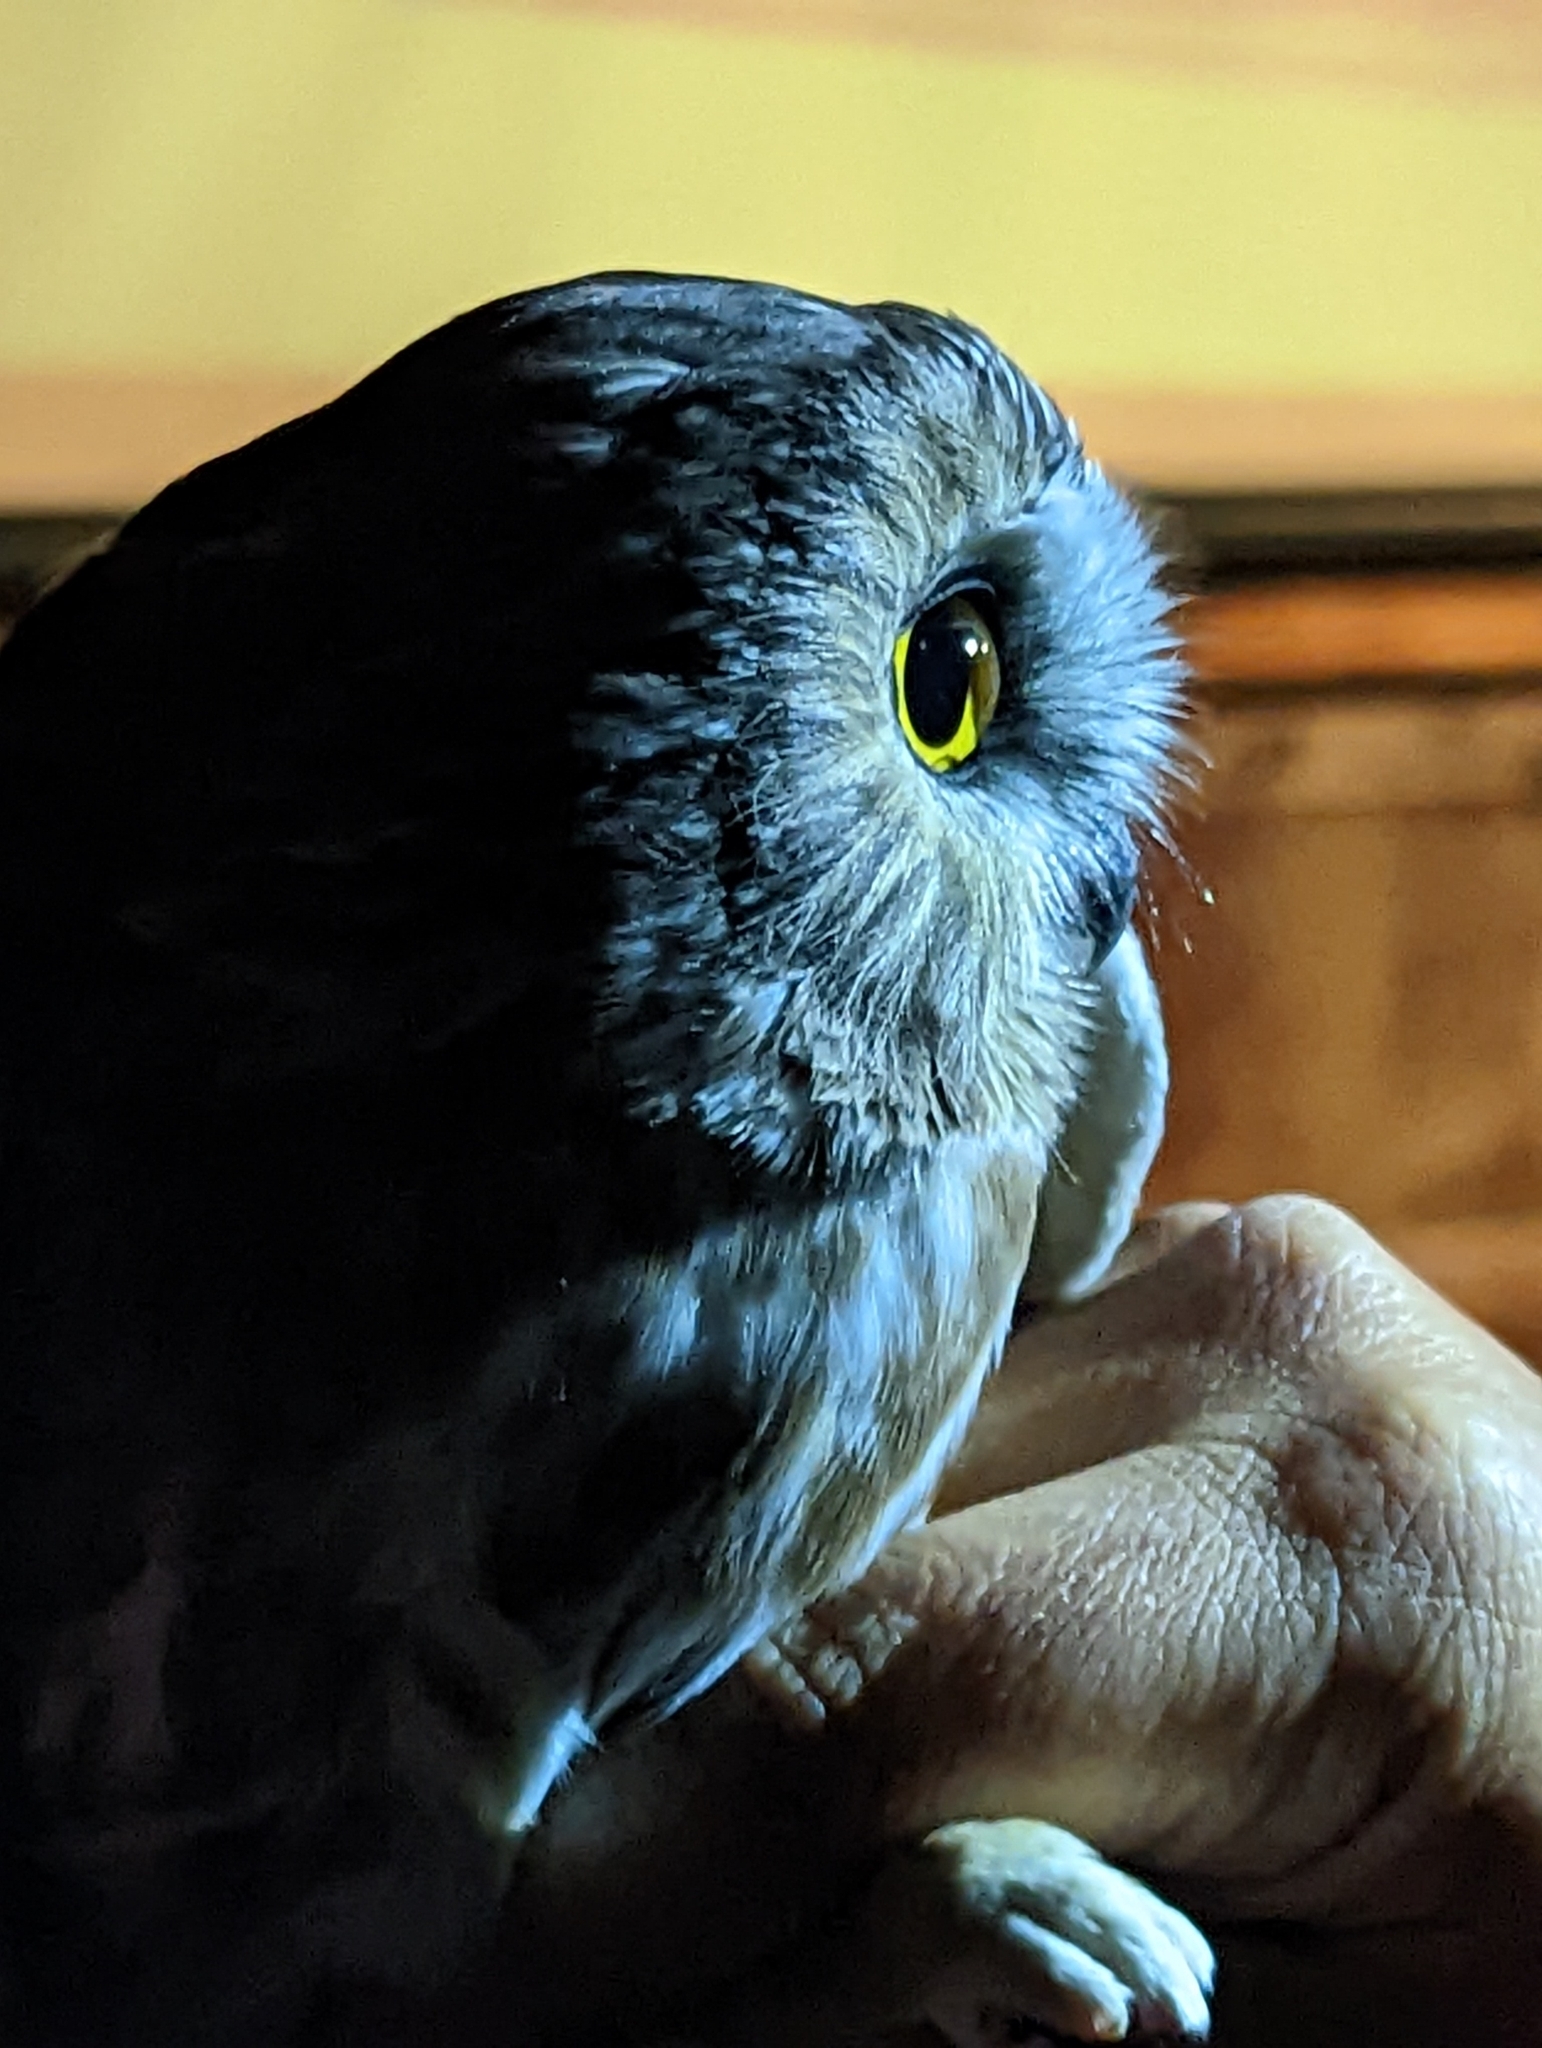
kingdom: Animalia
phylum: Chordata
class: Aves
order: Strigiformes
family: Strigidae
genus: Aegolius
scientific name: Aegolius acadicus
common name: Northern saw-whet owl
